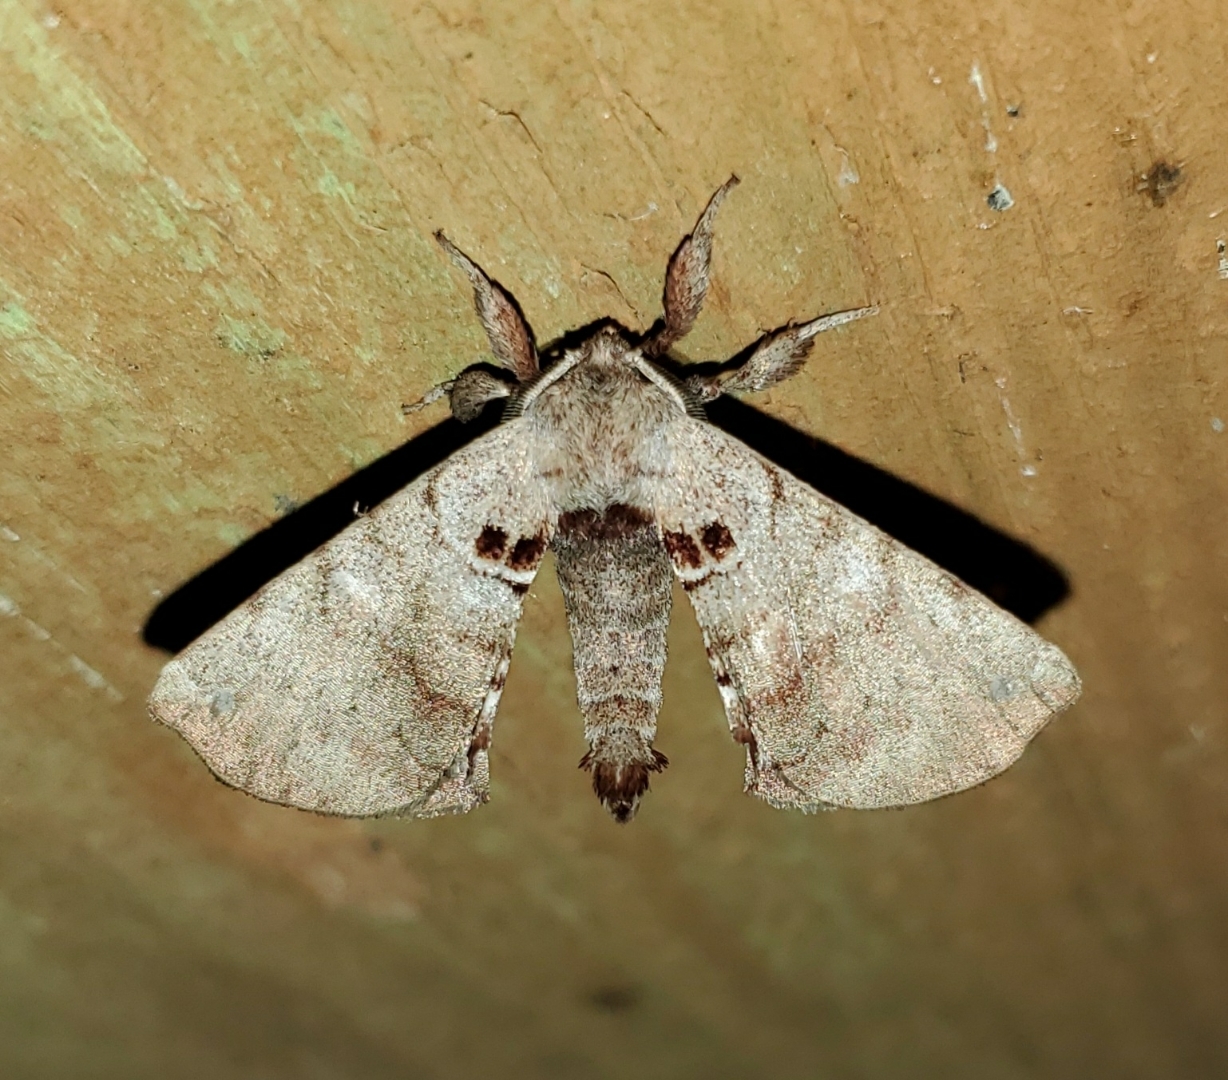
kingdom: Animalia
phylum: Arthropoda
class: Insecta
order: Lepidoptera
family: Apatelodidae
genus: Hygrochroa
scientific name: Hygrochroa Apatelodes torrefacta
